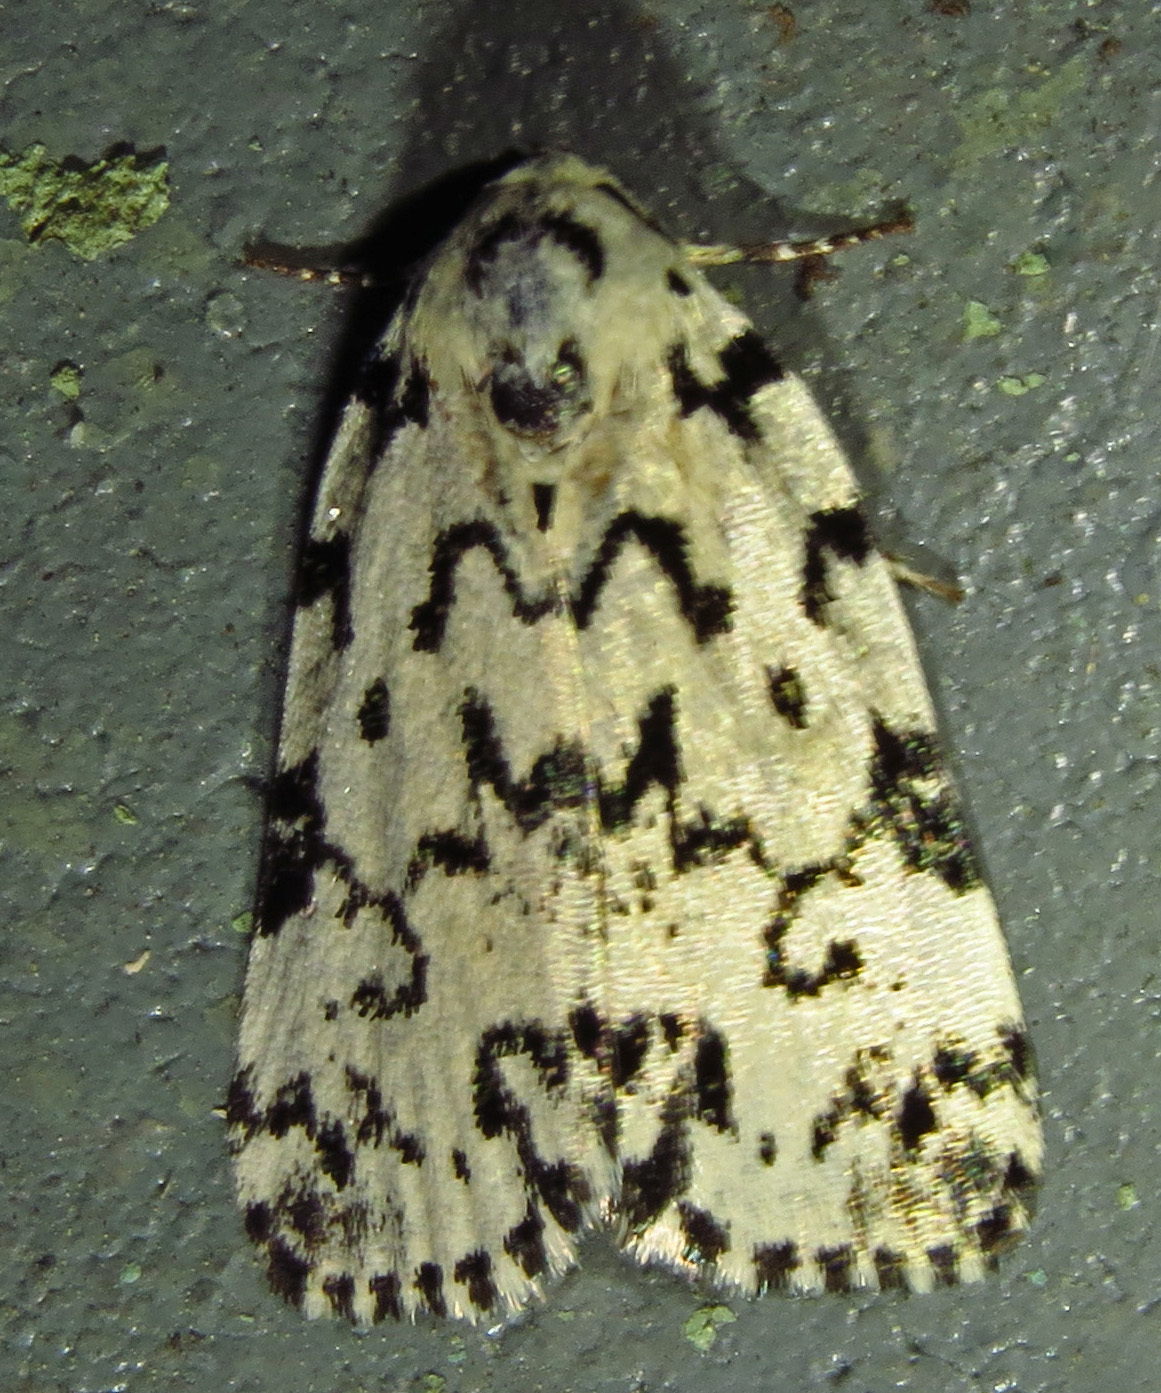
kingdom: Animalia
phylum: Arthropoda
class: Insecta
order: Lepidoptera
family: Noctuidae
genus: Polygrammate
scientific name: Polygrammate hebraeicum
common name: Hebrew moth
